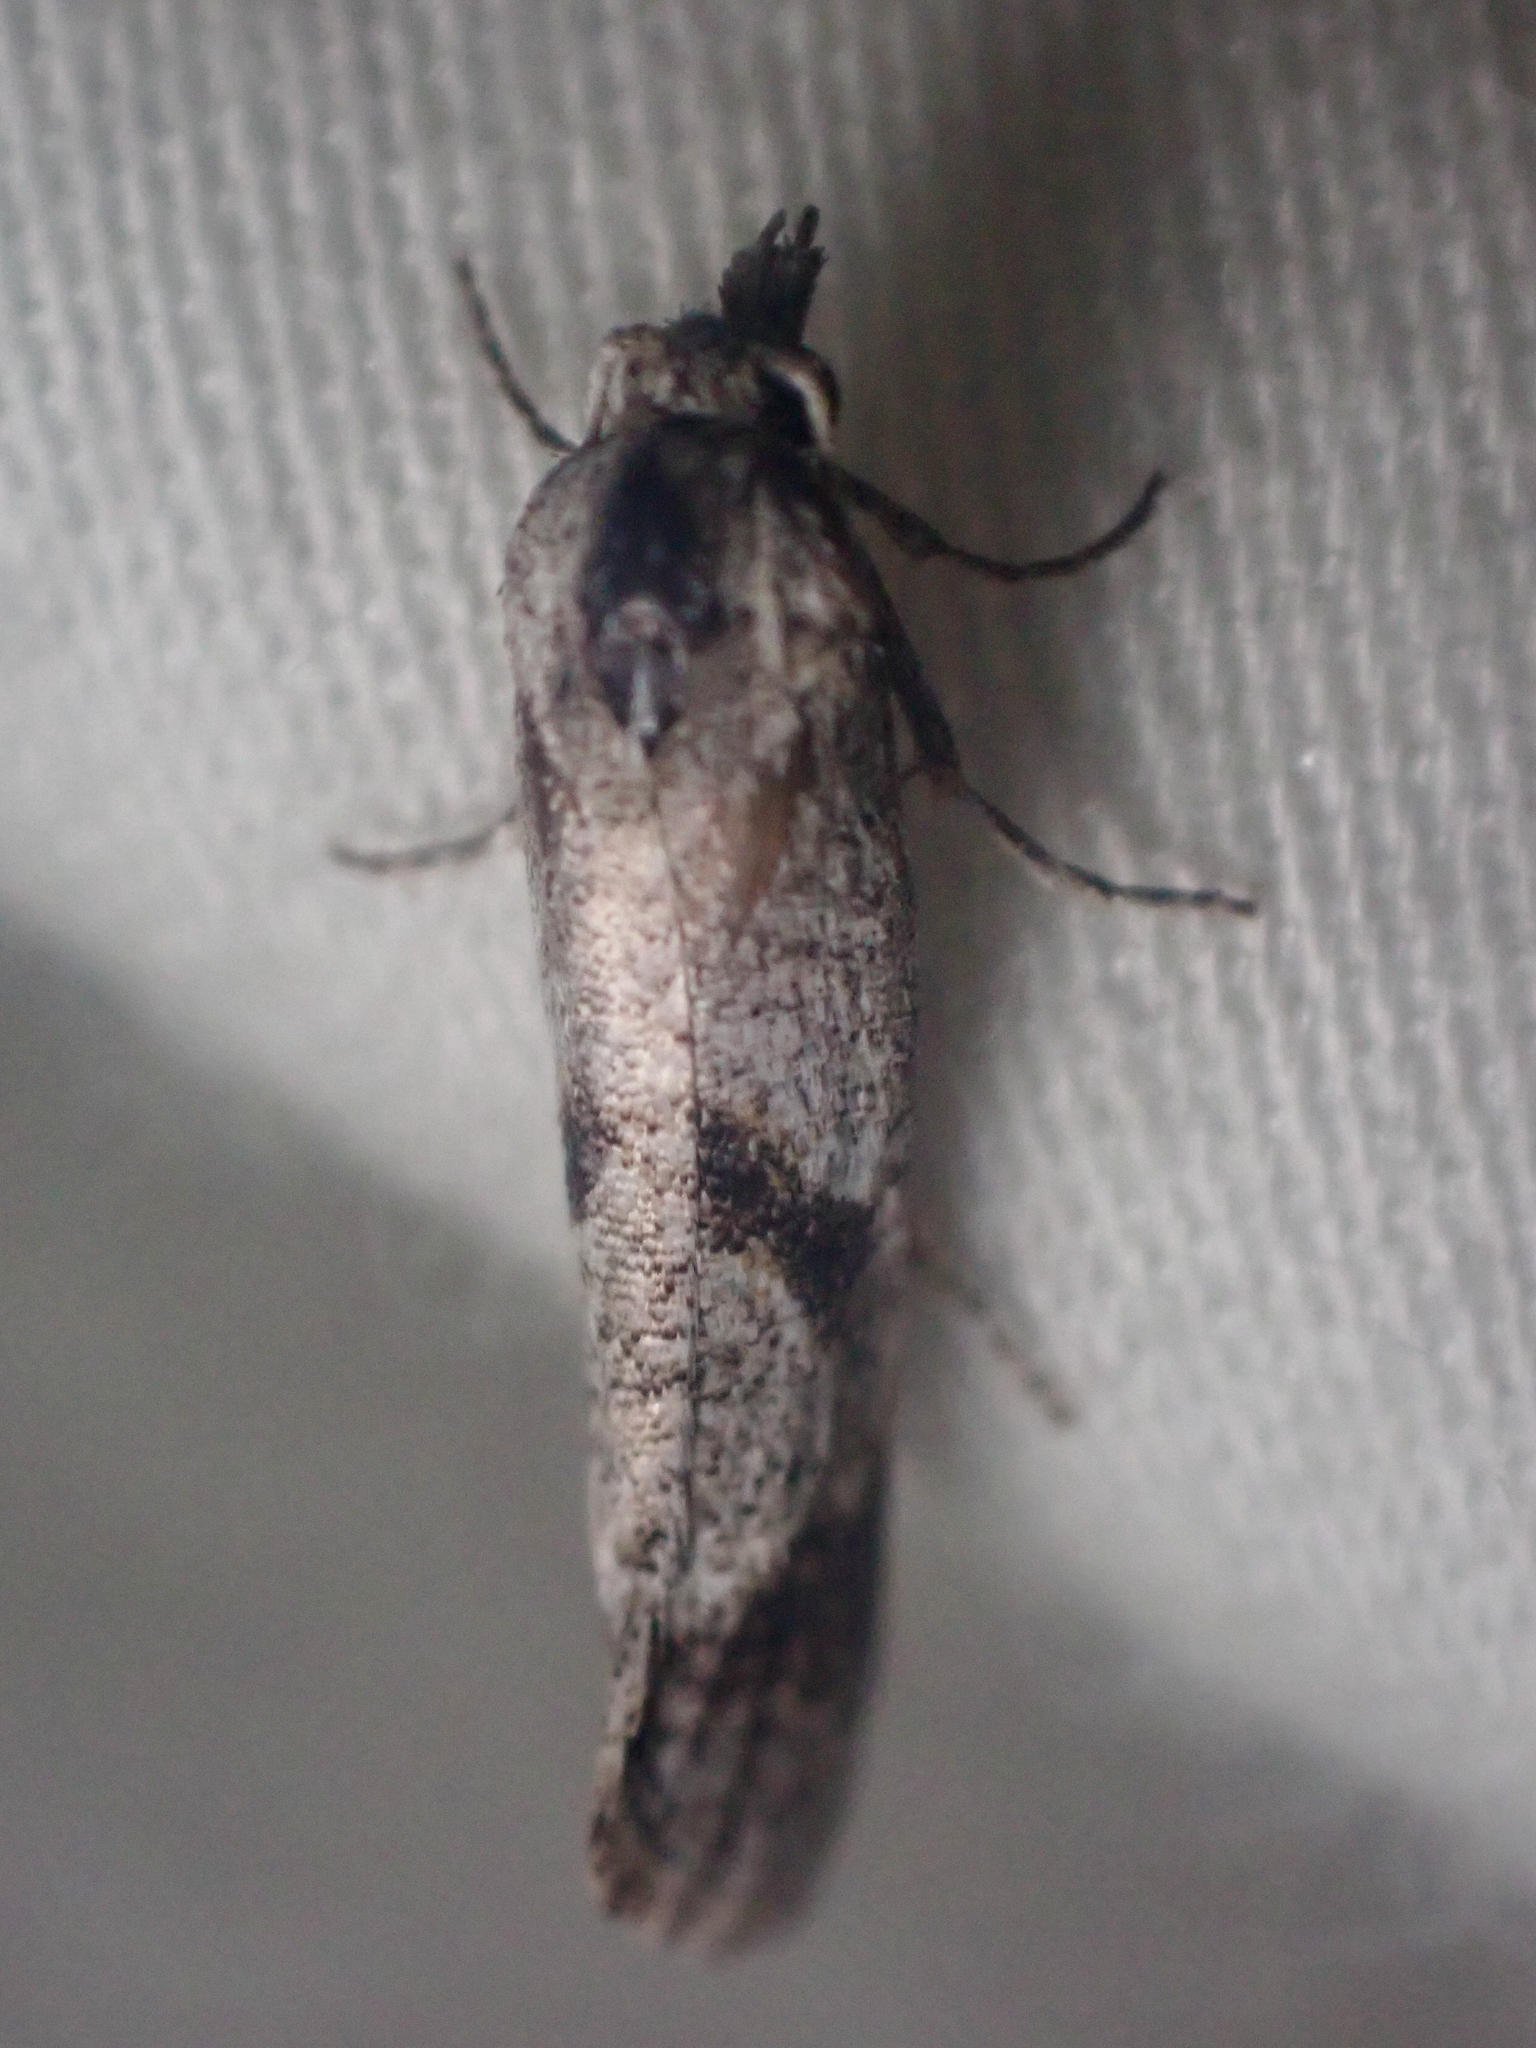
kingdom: Animalia
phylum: Arthropoda
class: Insecta
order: Lepidoptera
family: Tortricidae
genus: Eugnosta
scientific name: Eugnosta busckana
